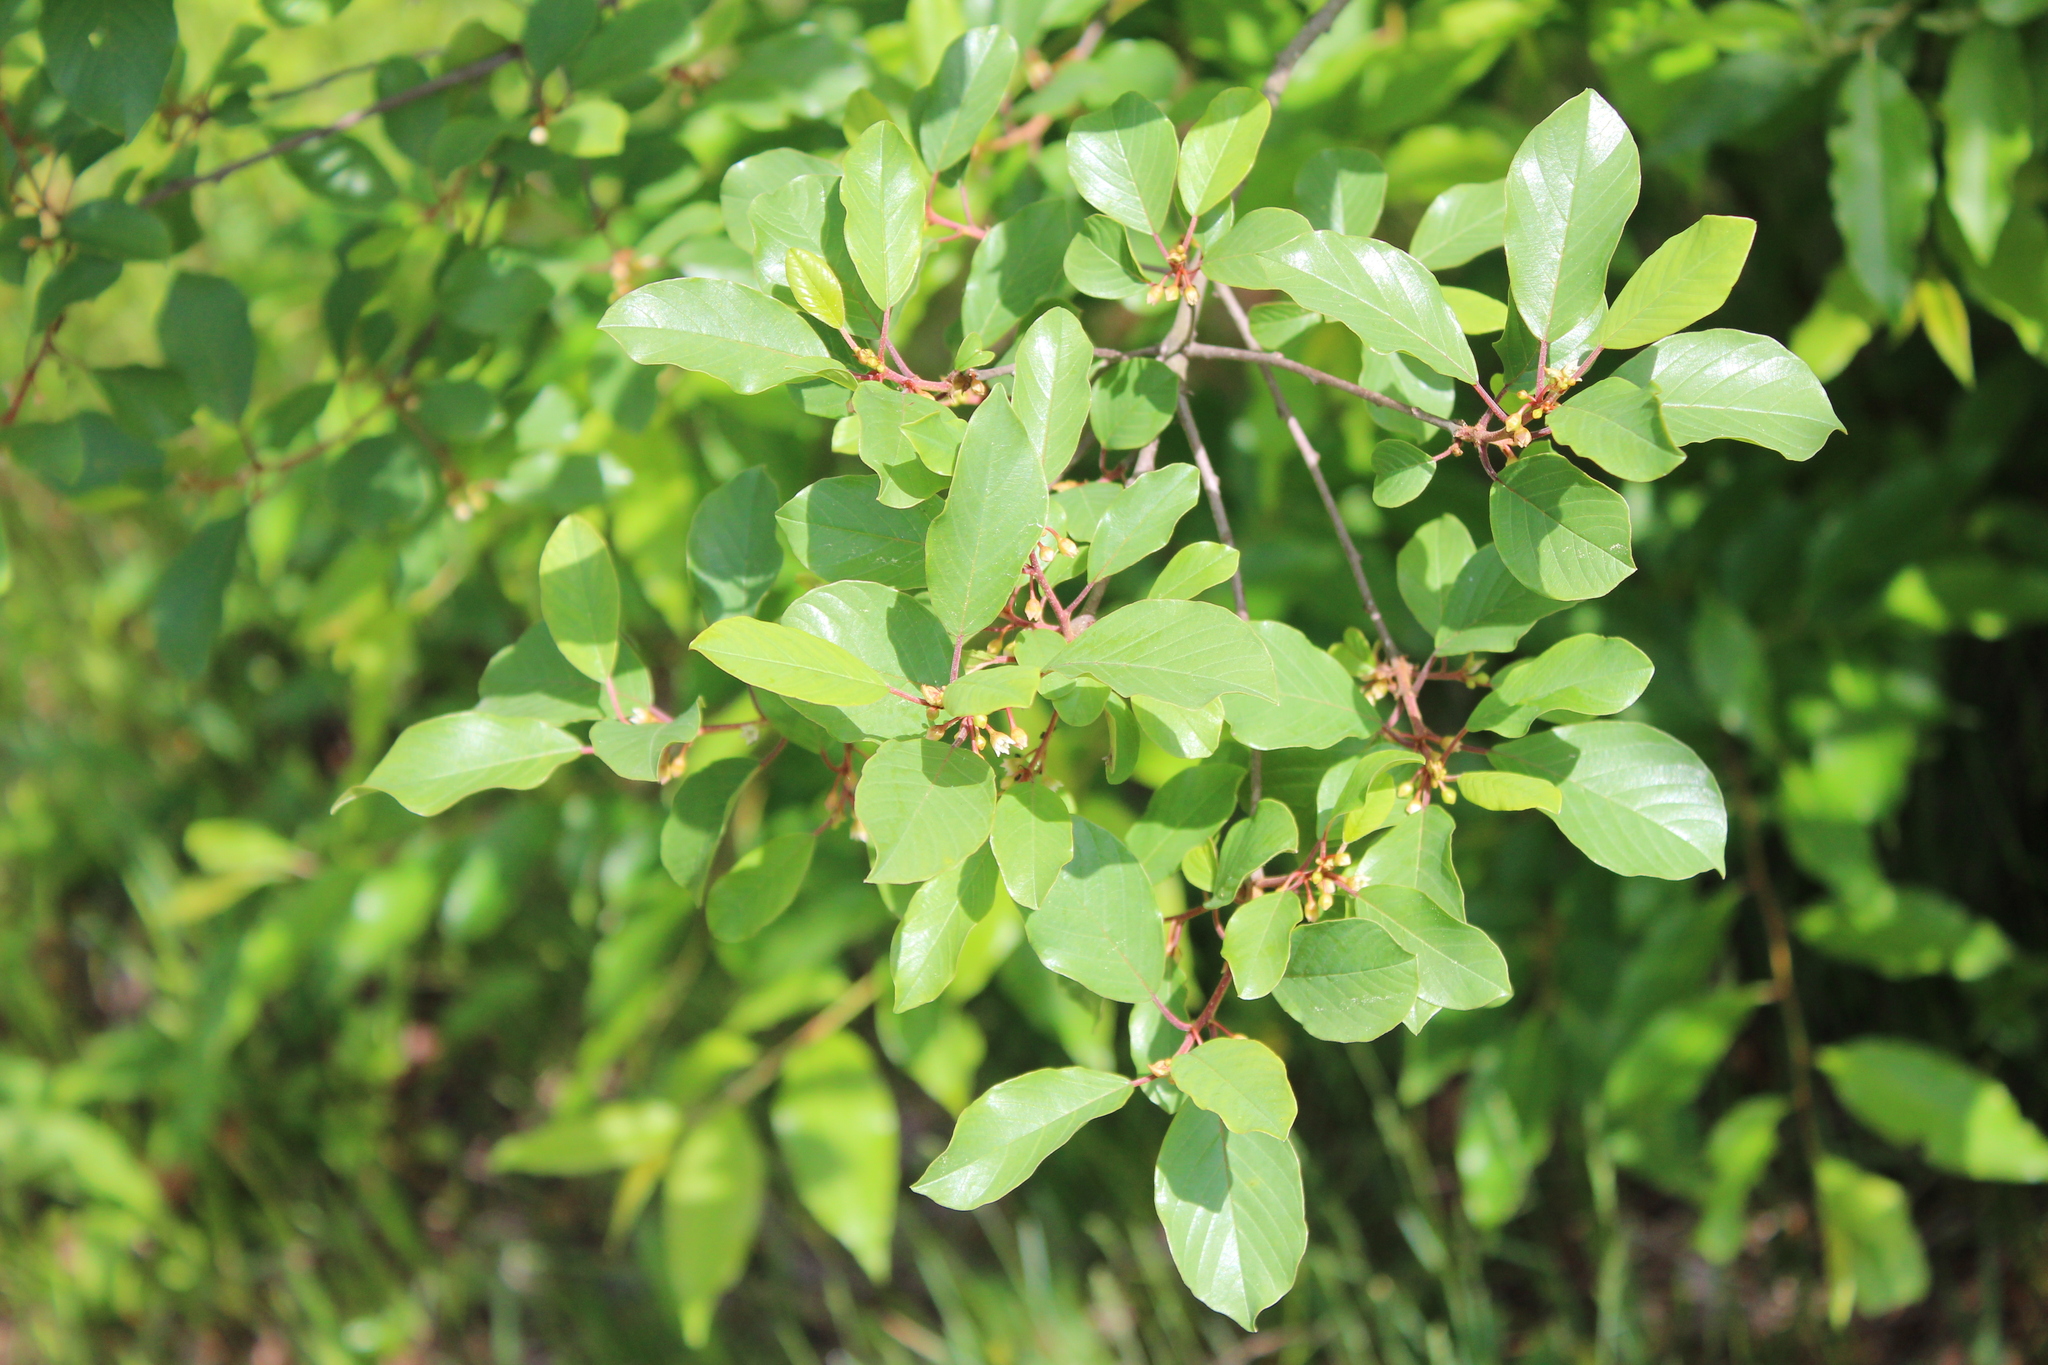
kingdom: Plantae
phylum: Tracheophyta
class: Magnoliopsida
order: Rosales
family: Rhamnaceae
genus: Frangula
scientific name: Frangula alnus
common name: Alder buckthorn
